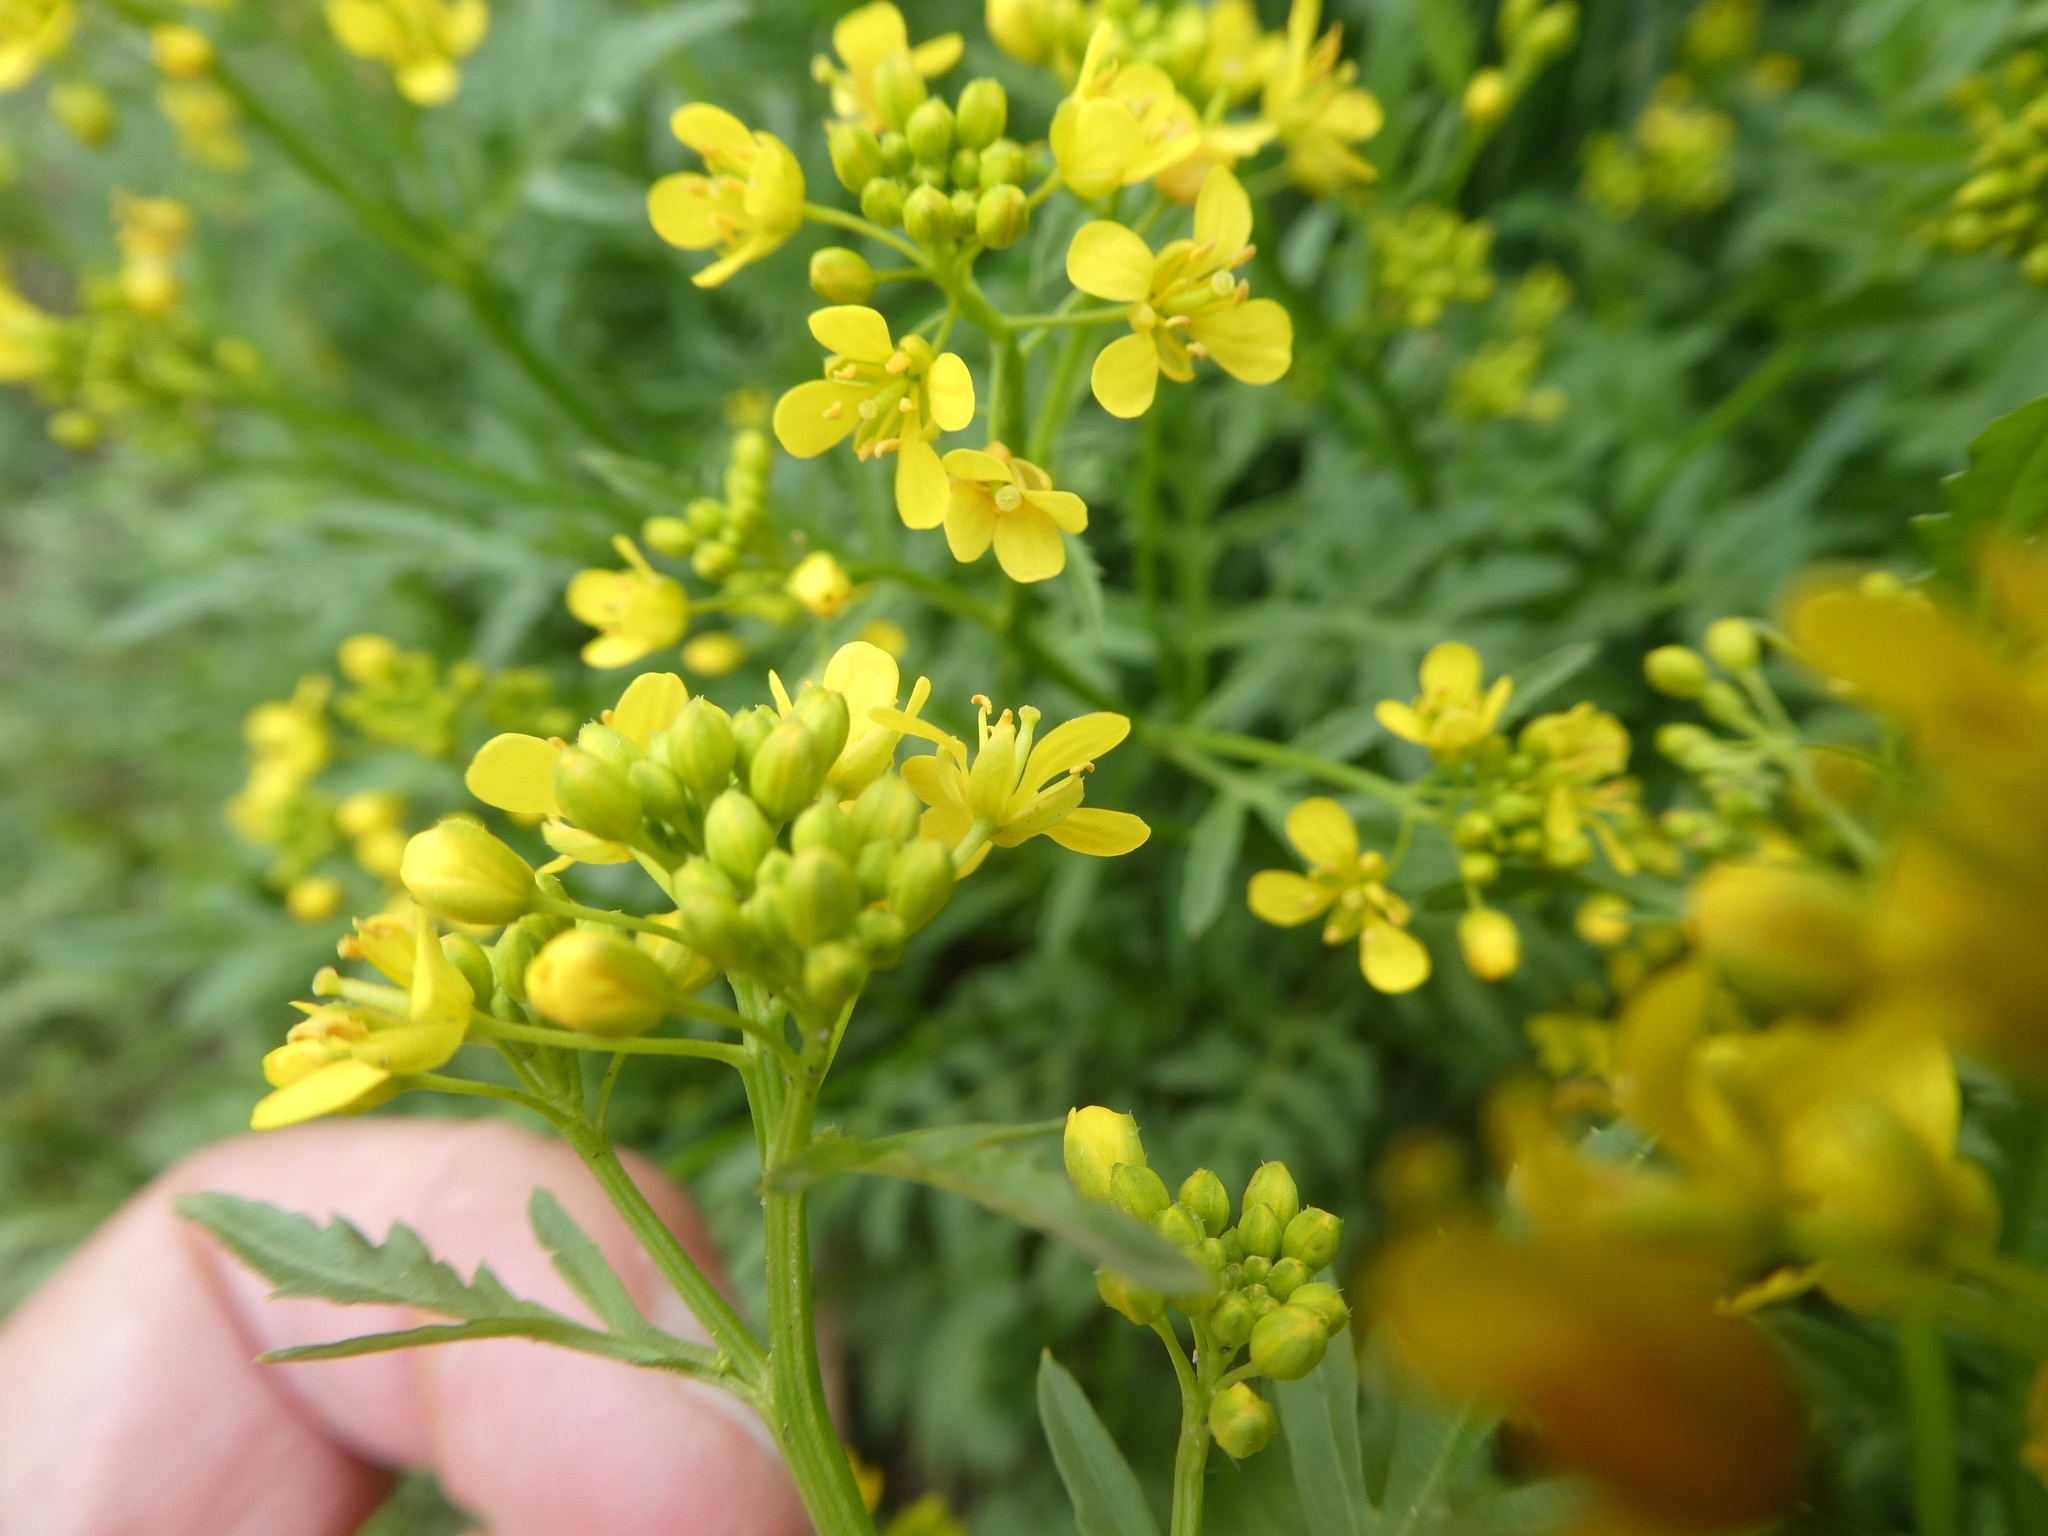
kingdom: Plantae
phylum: Tracheophyta
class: Magnoliopsida
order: Brassicales
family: Brassicaceae
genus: Rorippa
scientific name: Rorippa sylvestris
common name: Creeping yellowcress
